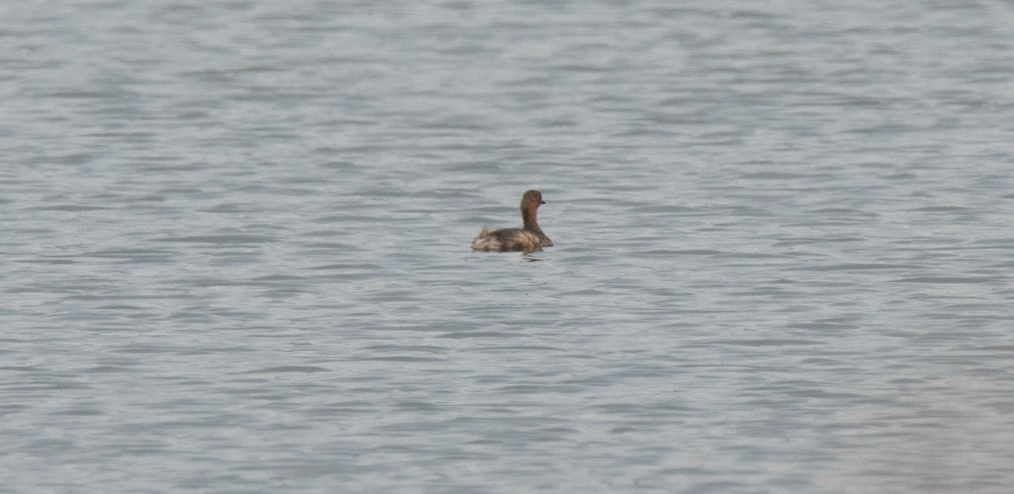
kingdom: Animalia
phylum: Chordata
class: Aves
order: Podicipediformes
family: Podicipedidae
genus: Tachybaptus
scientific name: Tachybaptus ruficollis
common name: Little grebe
